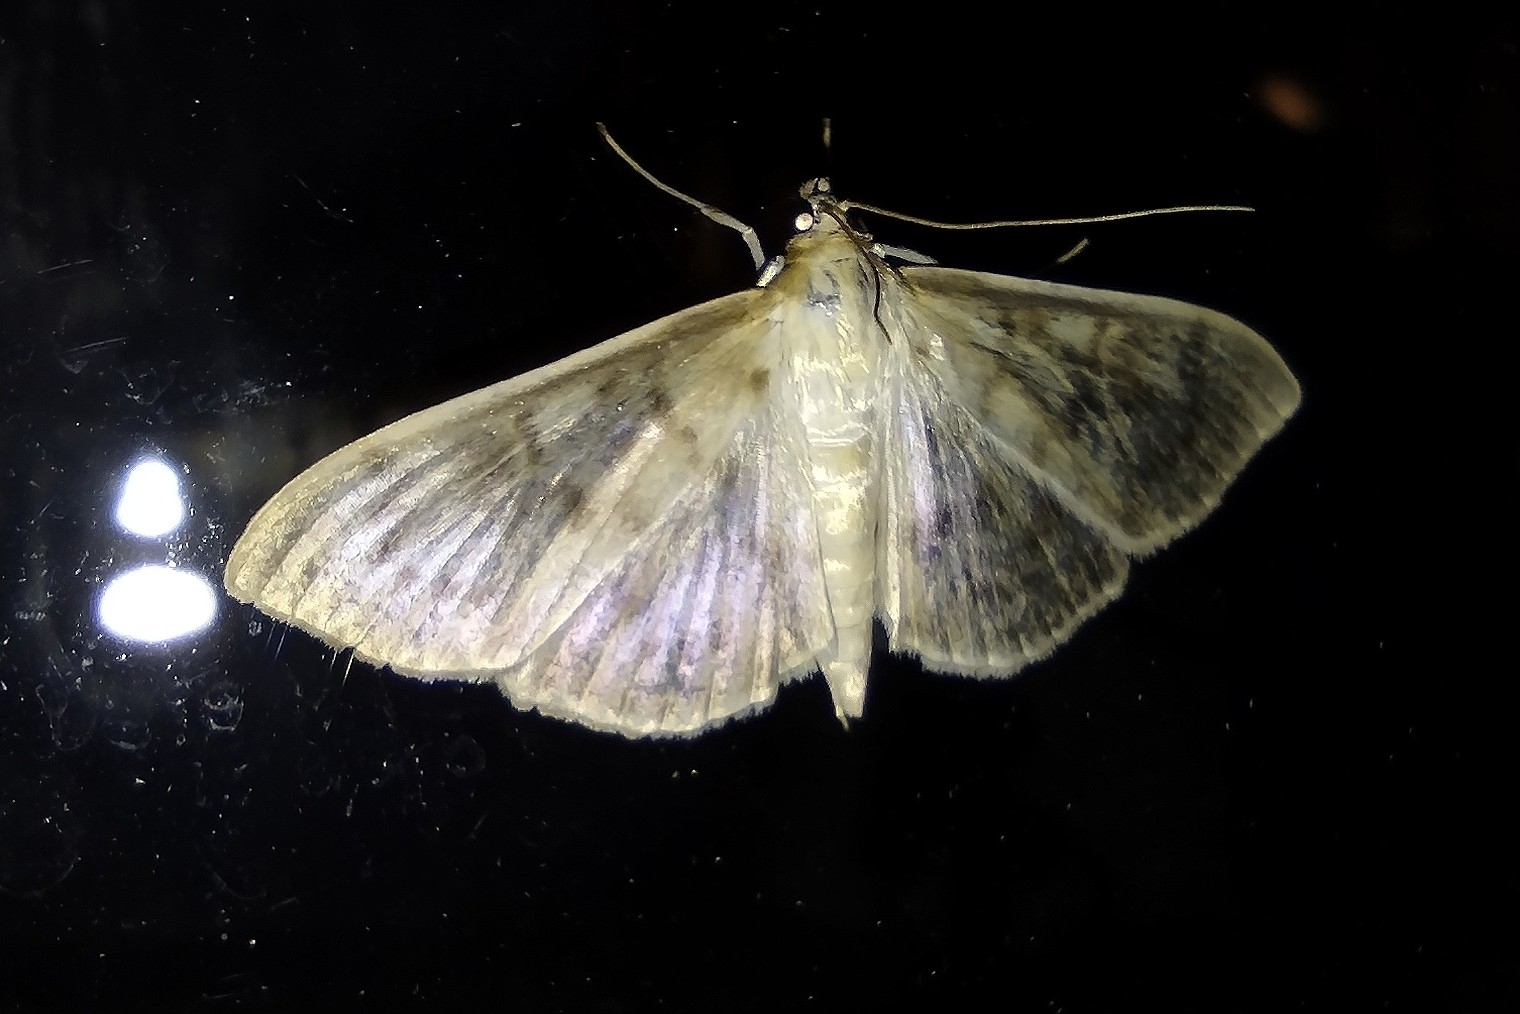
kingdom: Animalia
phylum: Arthropoda
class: Insecta
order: Lepidoptera
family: Crambidae
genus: Patania
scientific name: Patania ruralis
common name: Mother of pearl
